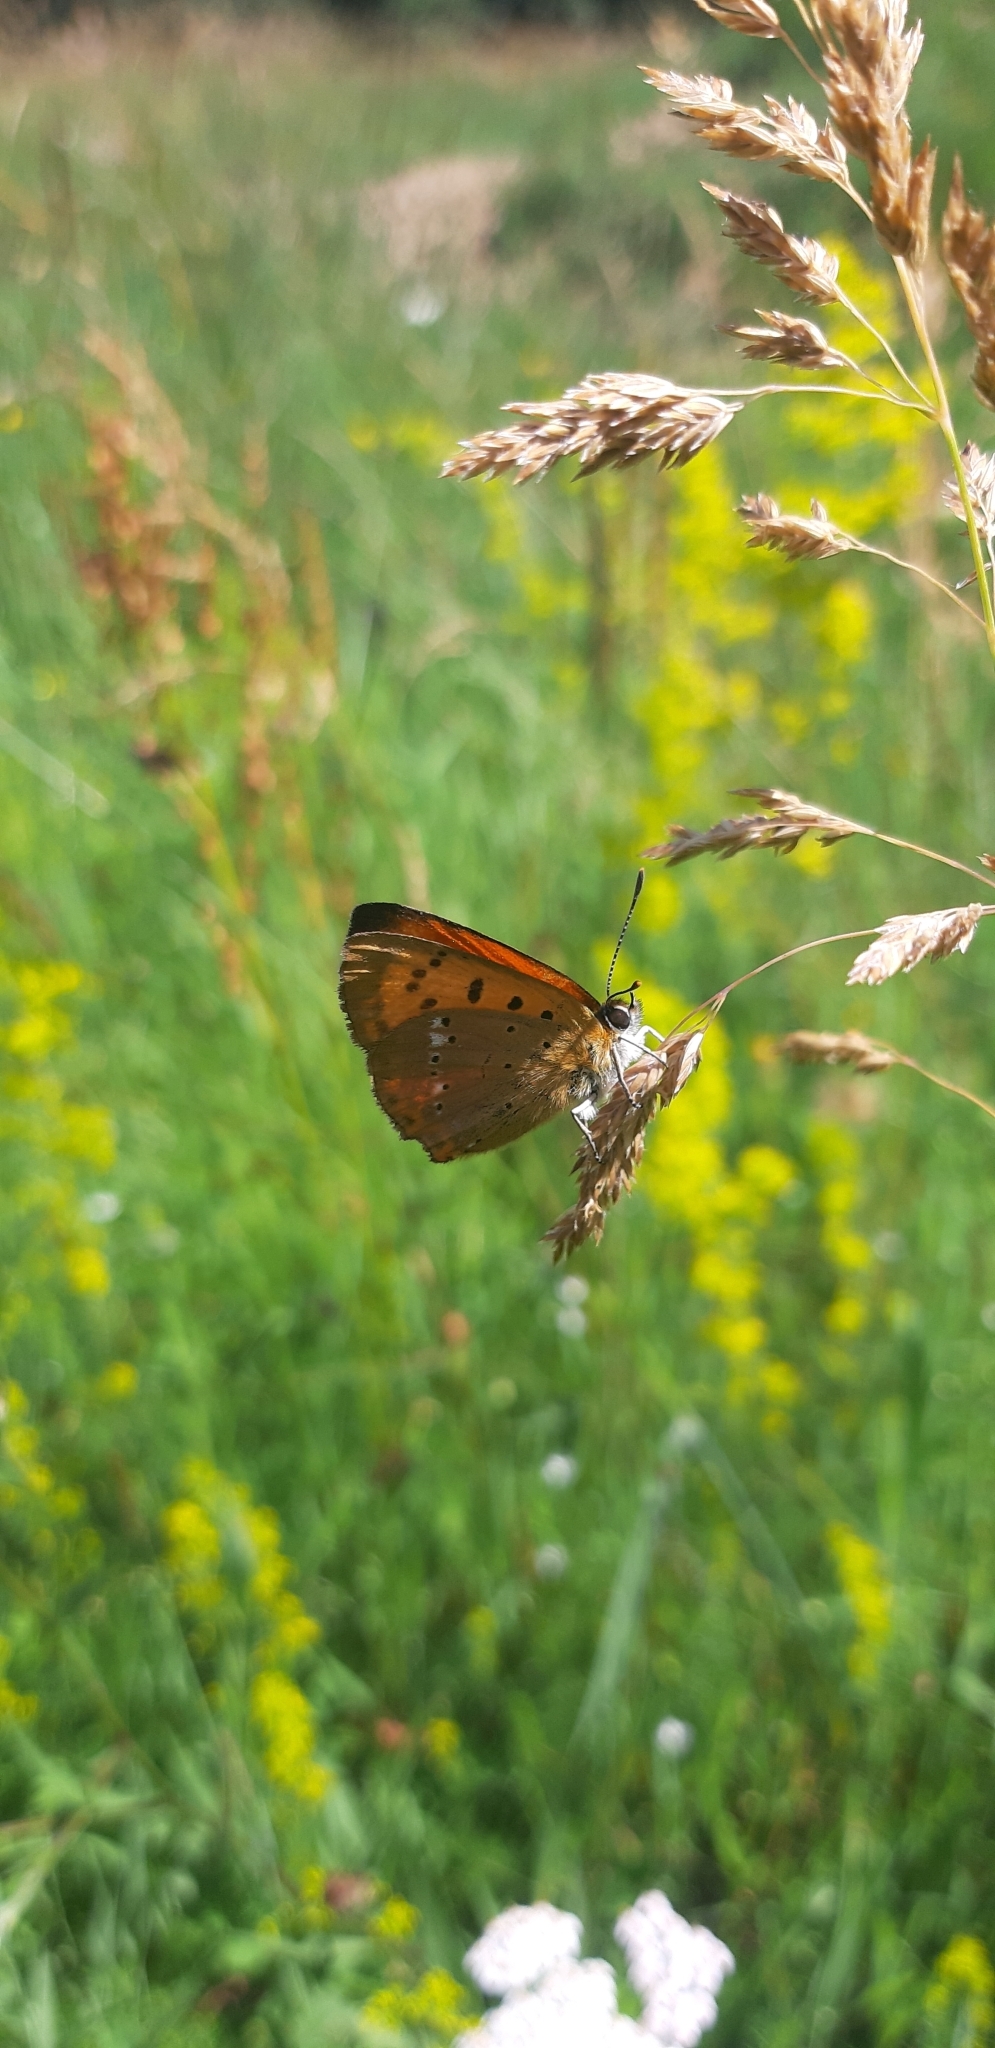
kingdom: Animalia
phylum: Arthropoda
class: Insecta
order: Lepidoptera
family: Lycaenidae
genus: Lycaena
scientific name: Lycaena virgaureae
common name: Scarce copper
